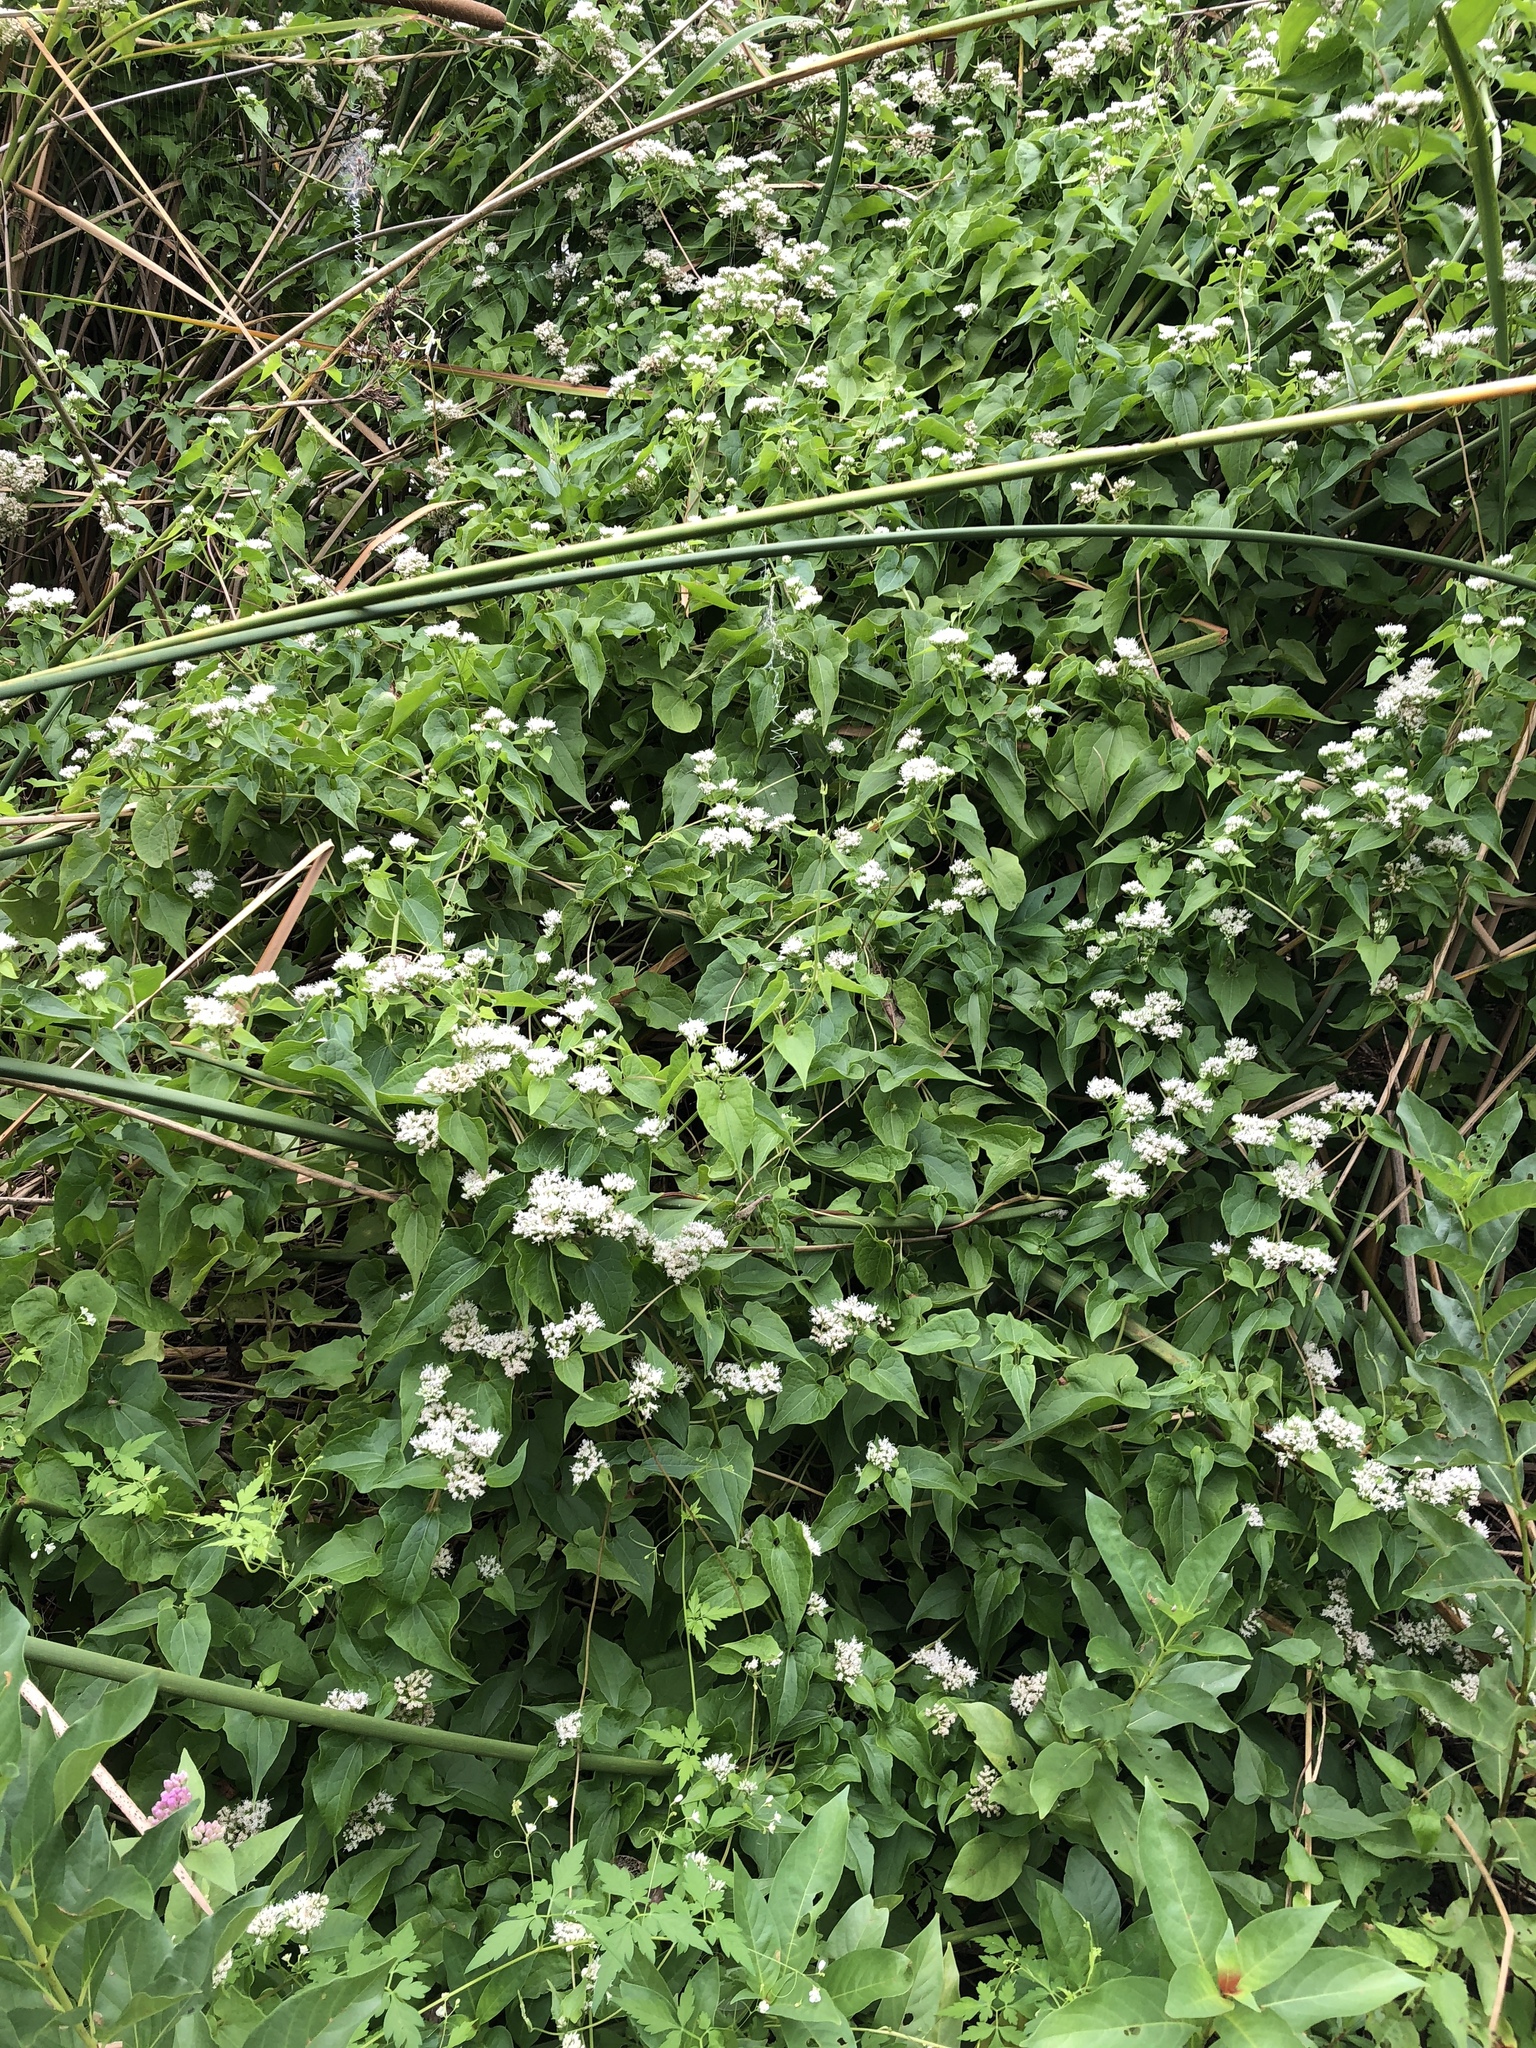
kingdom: Plantae
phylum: Tracheophyta
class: Magnoliopsida
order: Asterales
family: Asteraceae
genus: Mikania
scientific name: Mikania scandens
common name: Climbing hempvine
